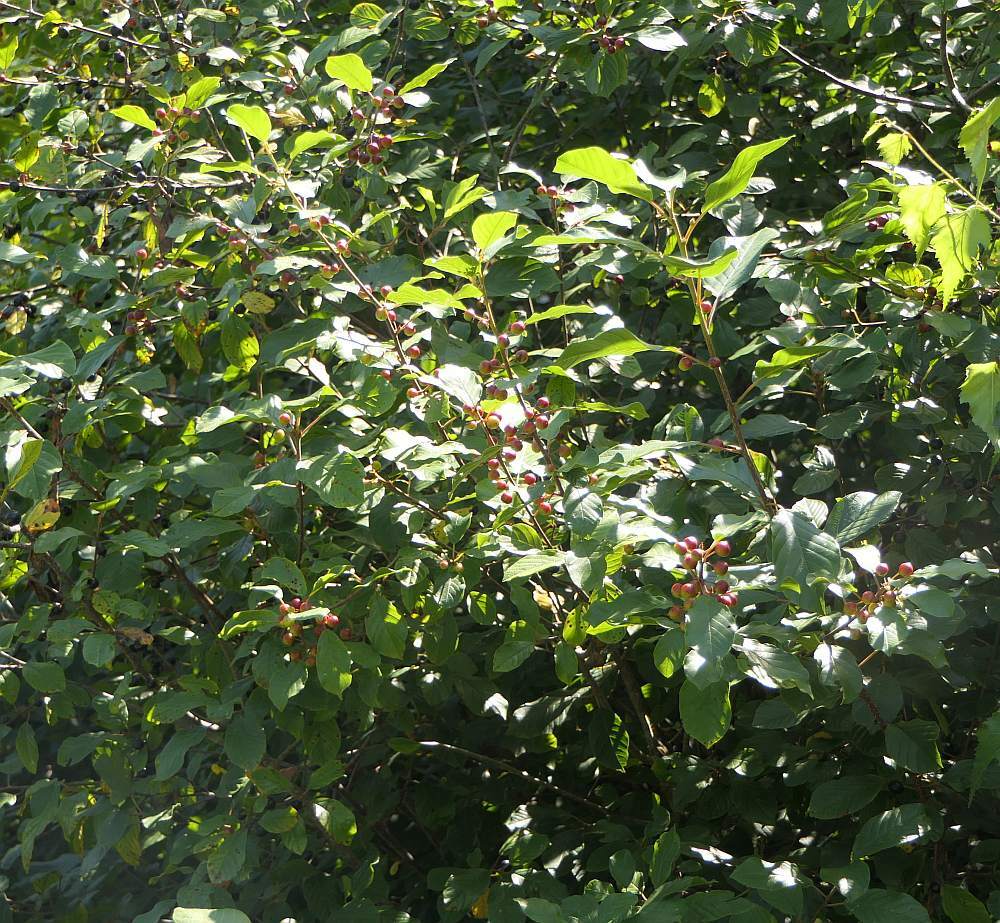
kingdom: Plantae
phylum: Tracheophyta
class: Magnoliopsida
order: Rosales
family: Rhamnaceae
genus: Frangula
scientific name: Frangula alnus
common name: Alder buckthorn
